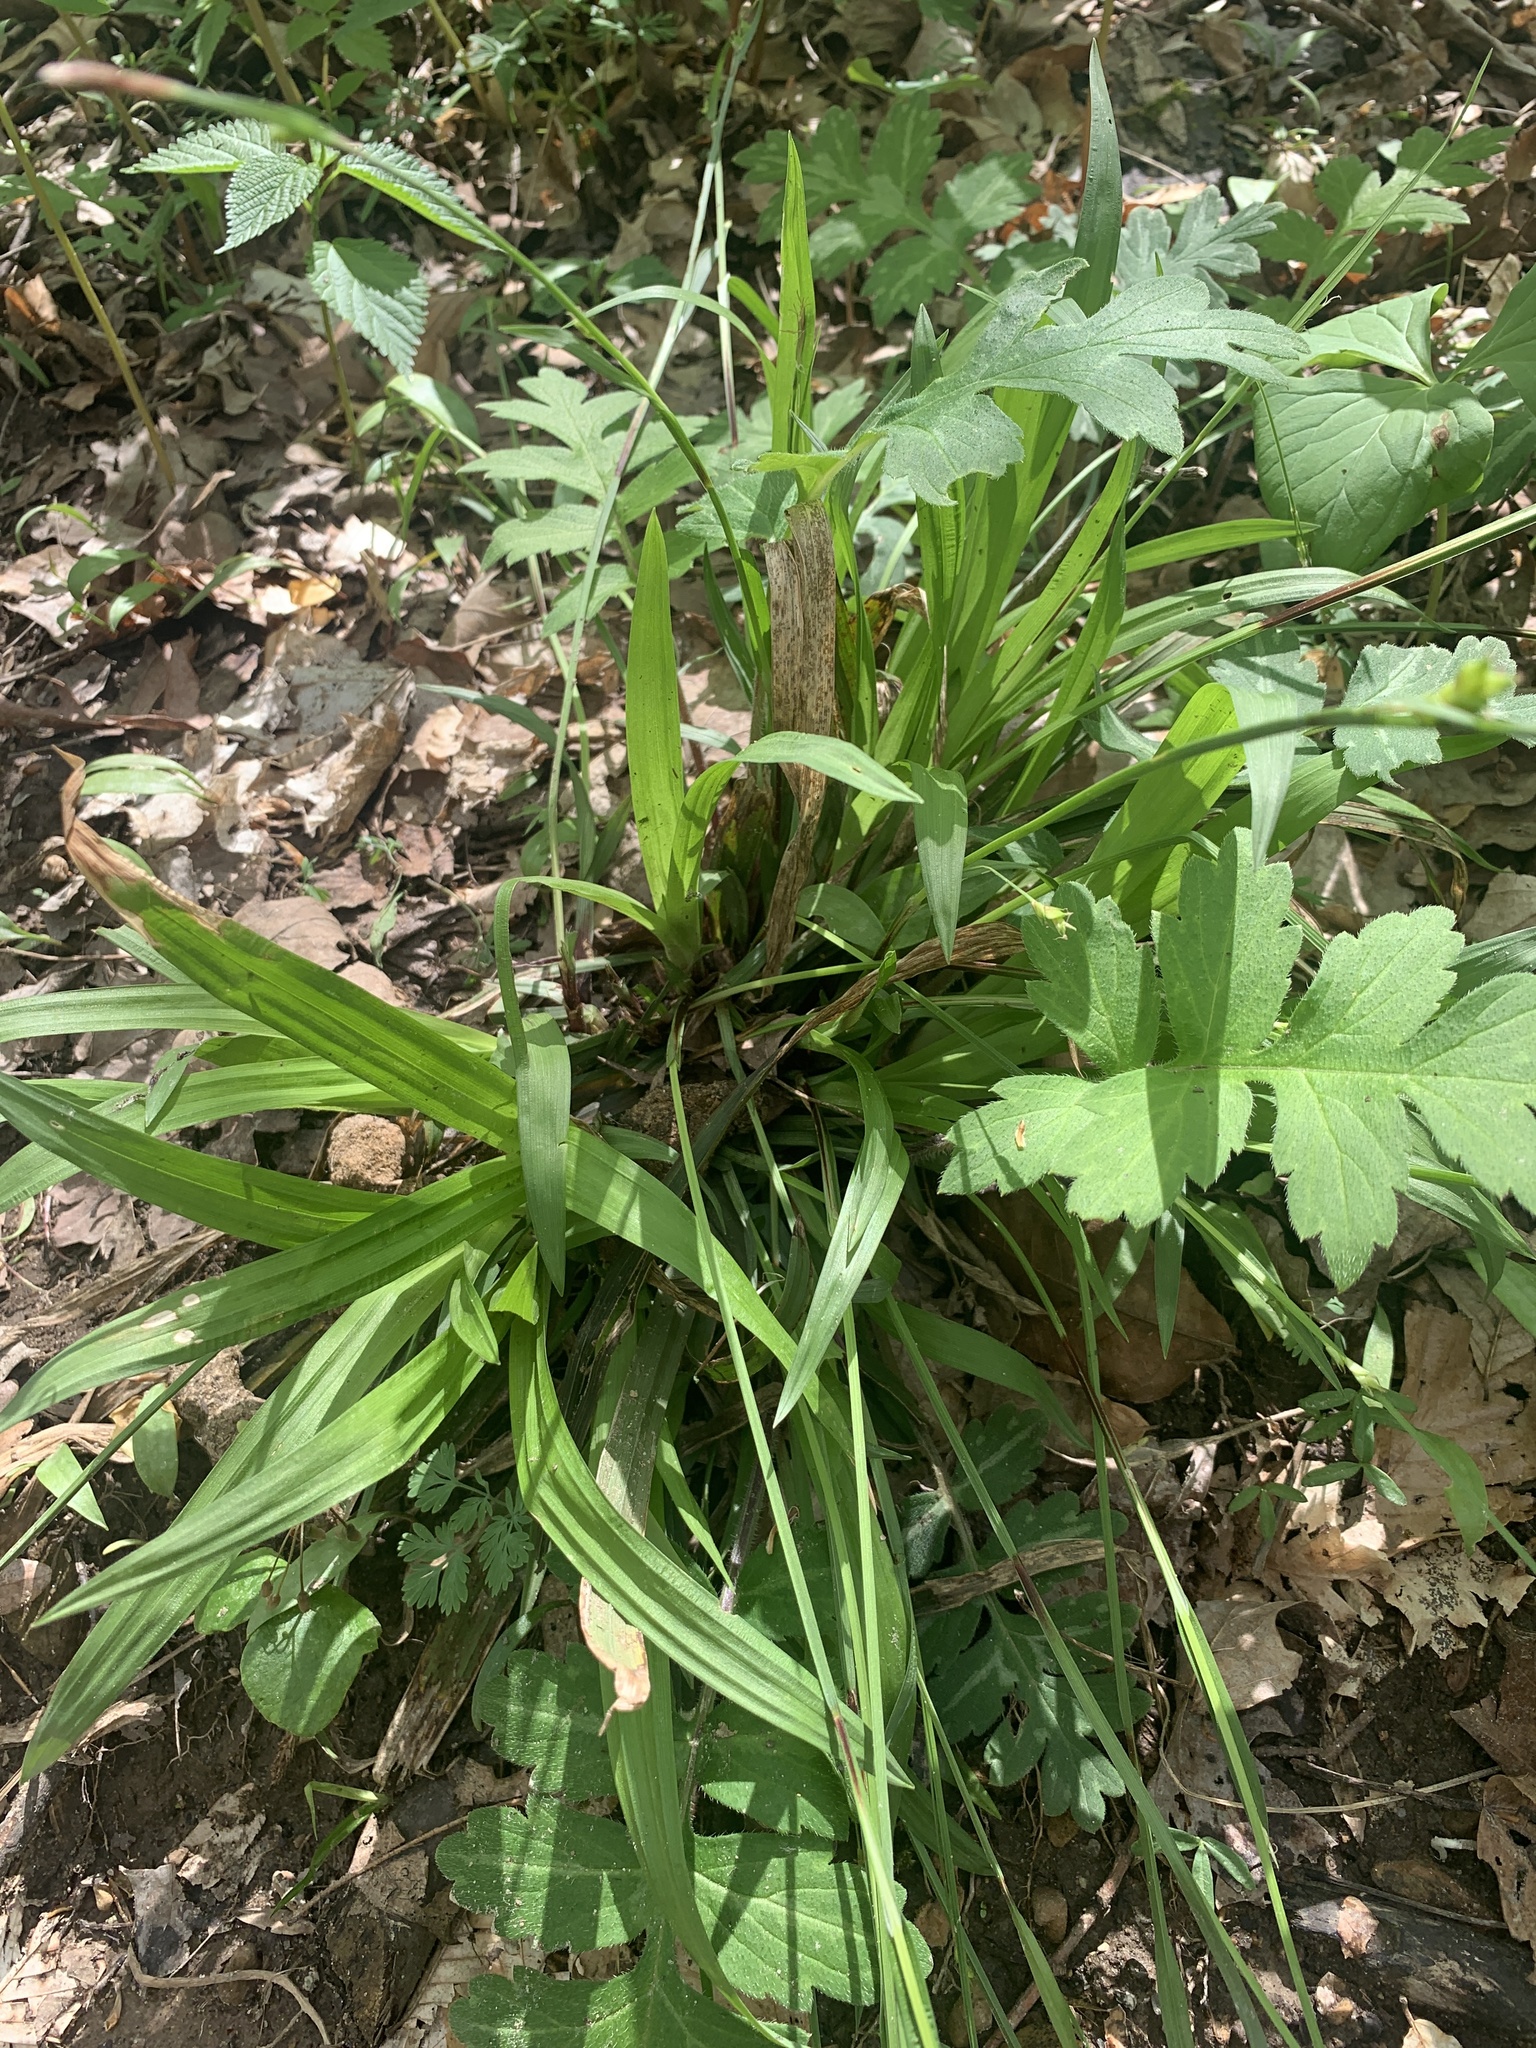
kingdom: Plantae
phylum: Tracheophyta
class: Liliopsida
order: Poales
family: Cyperaceae
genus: Carex
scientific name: Carex careyana
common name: Carey's sedge
